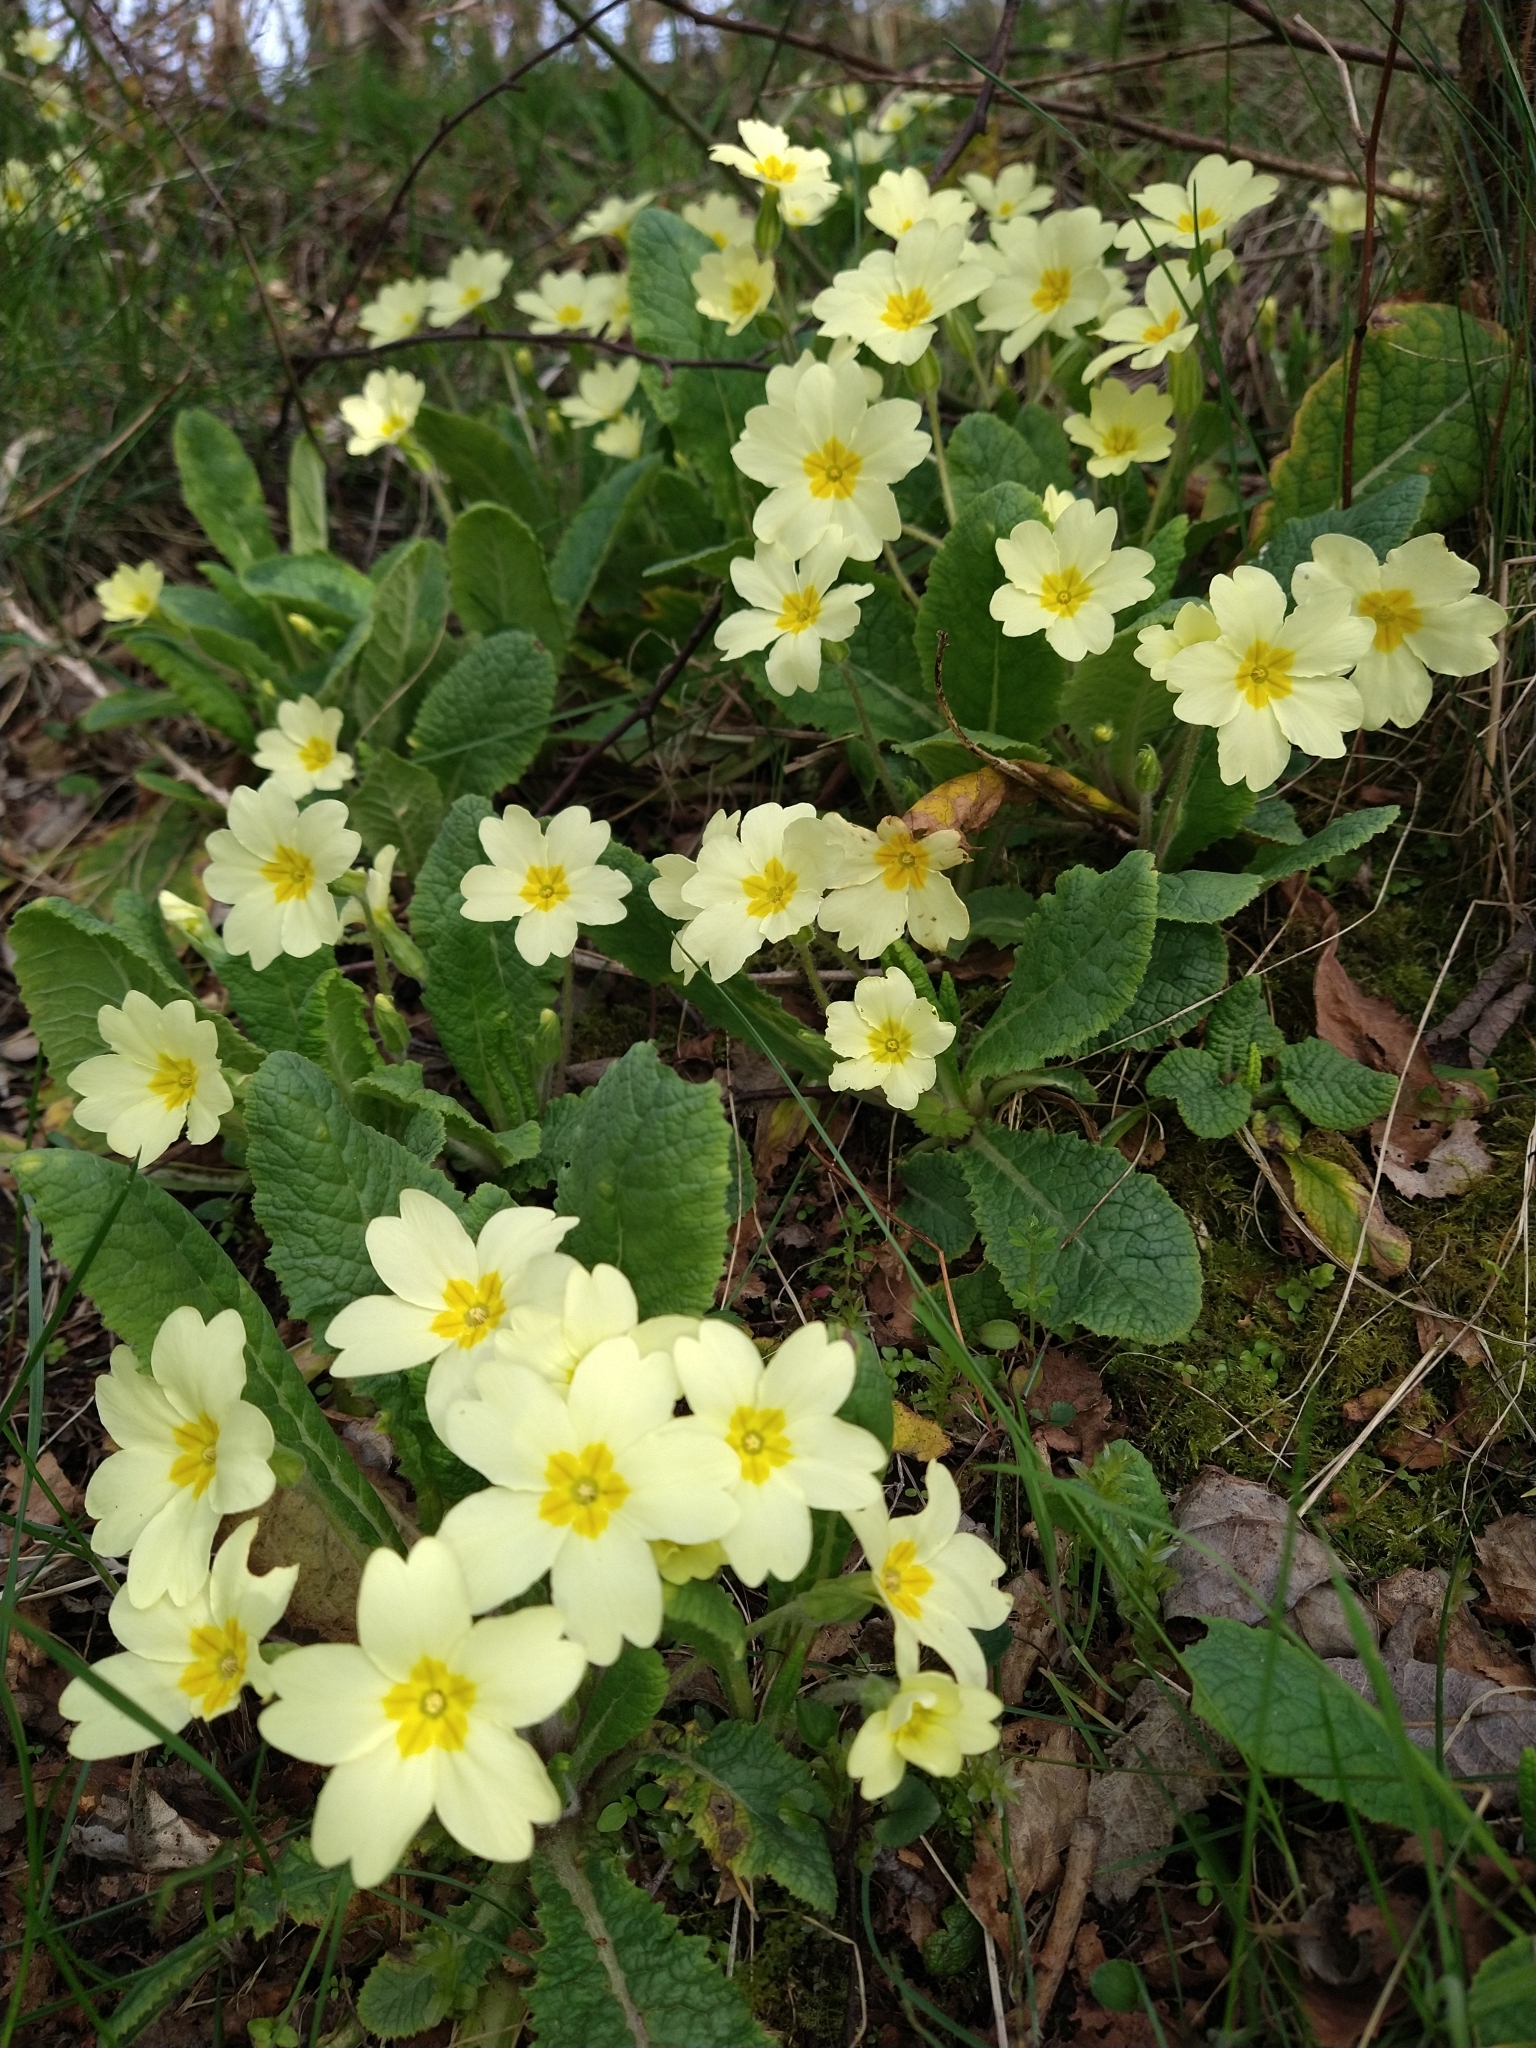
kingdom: Plantae
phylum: Tracheophyta
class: Magnoliopsida
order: Ericales
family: Primulaceae
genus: Primula
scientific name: Primula vulgaris
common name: Primrose
